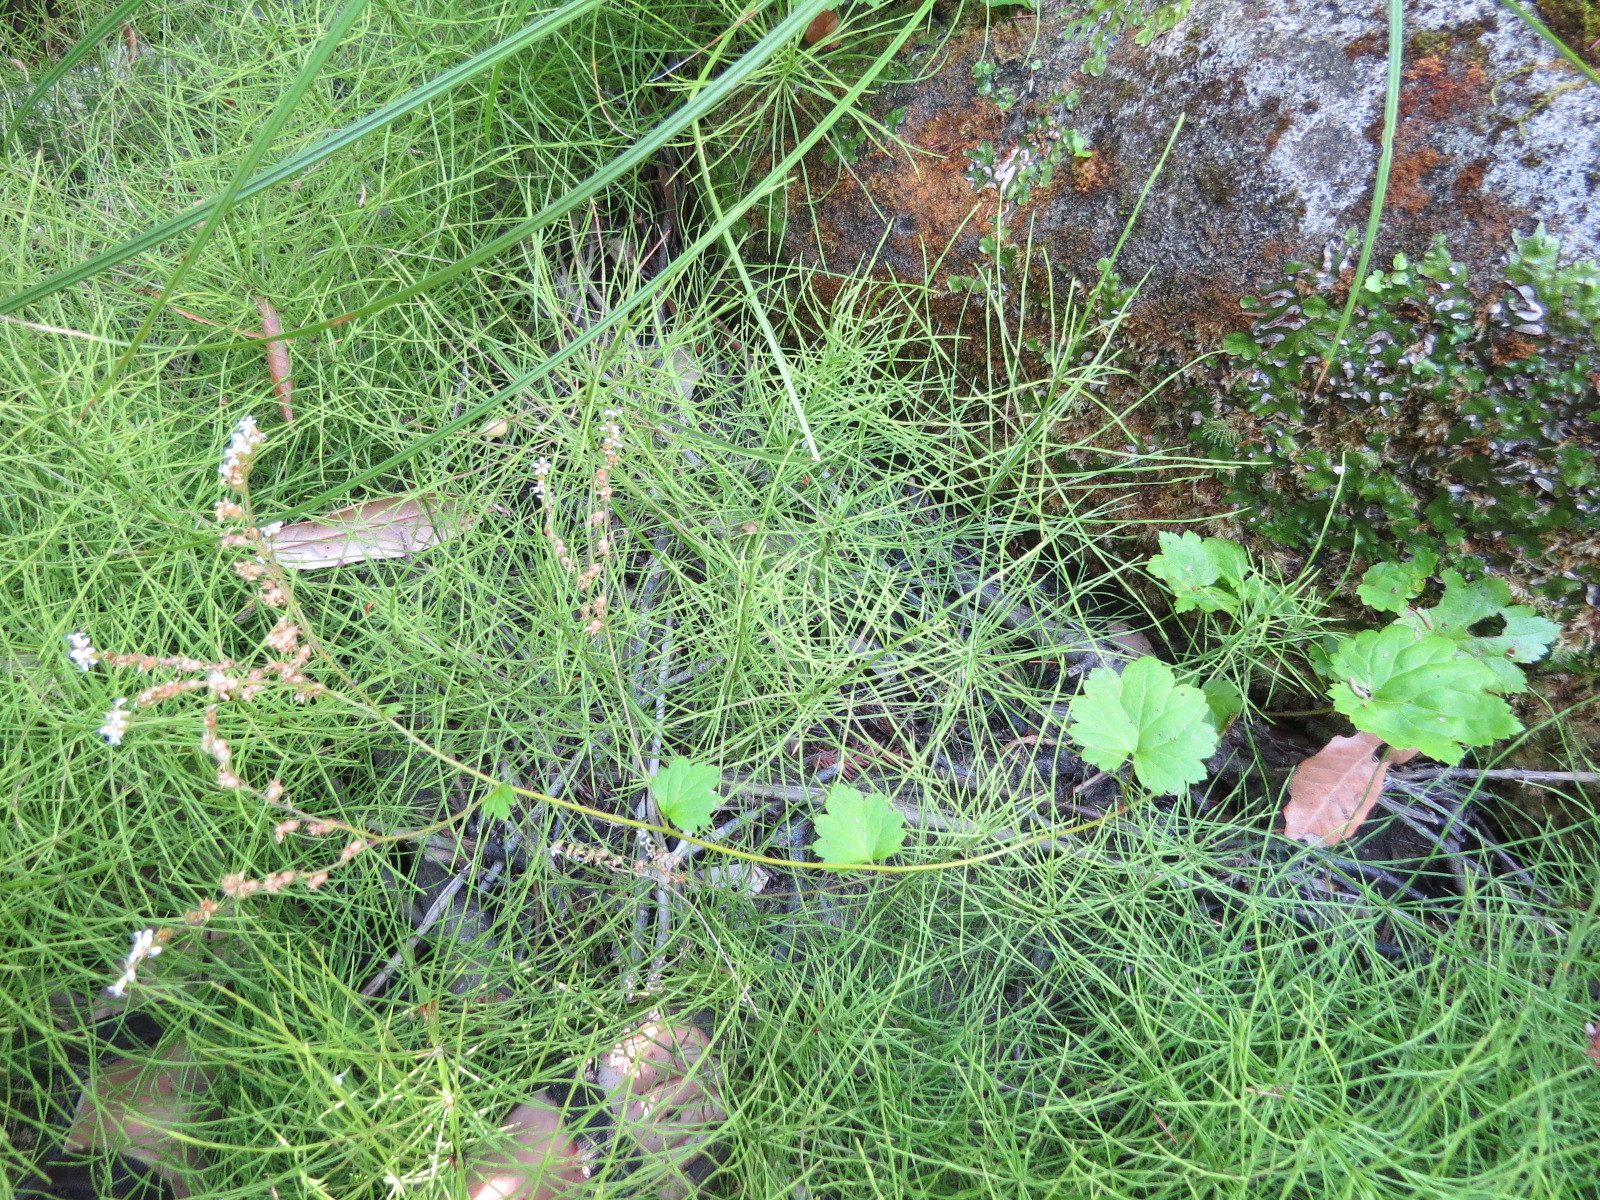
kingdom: Plantae
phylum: Tracheophyta
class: Magnoliopsida
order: Saxifragales
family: Saxifragaceae
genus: Boykinia
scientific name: Boykinia occidentalis
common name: Coast boykinia
